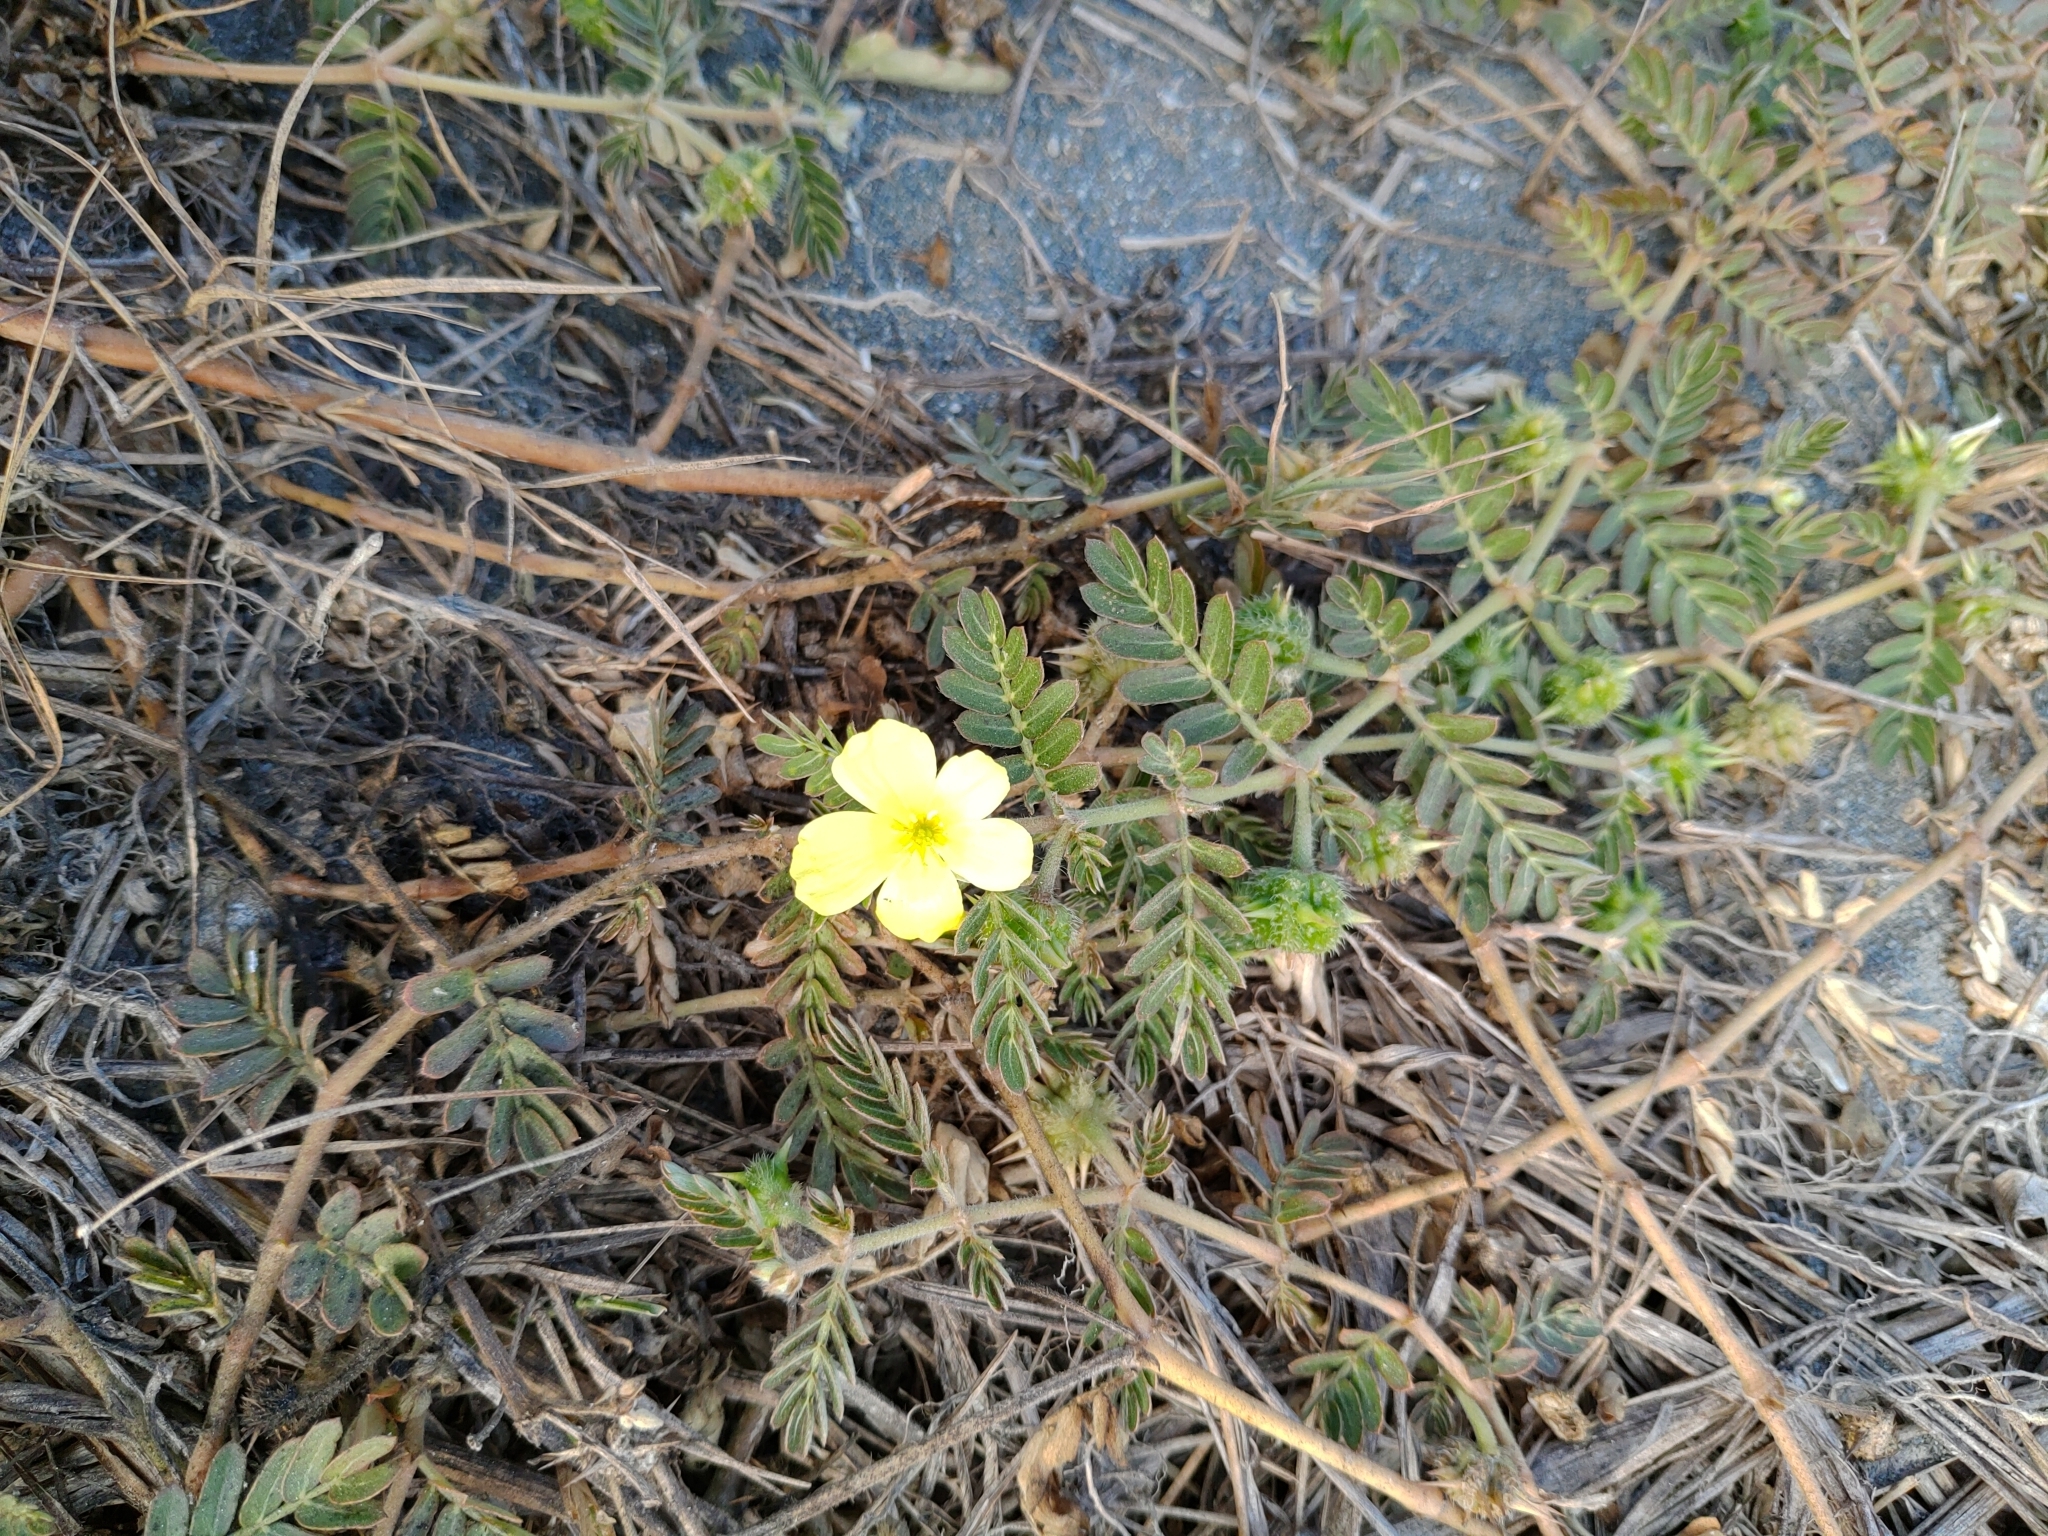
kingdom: Plantae
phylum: Tracheophyta
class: Magnoliopsida
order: Zygophyllales
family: Zygophyllaceae
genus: Tribulus
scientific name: Tribulus cistoides
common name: Jamaican feverplant
